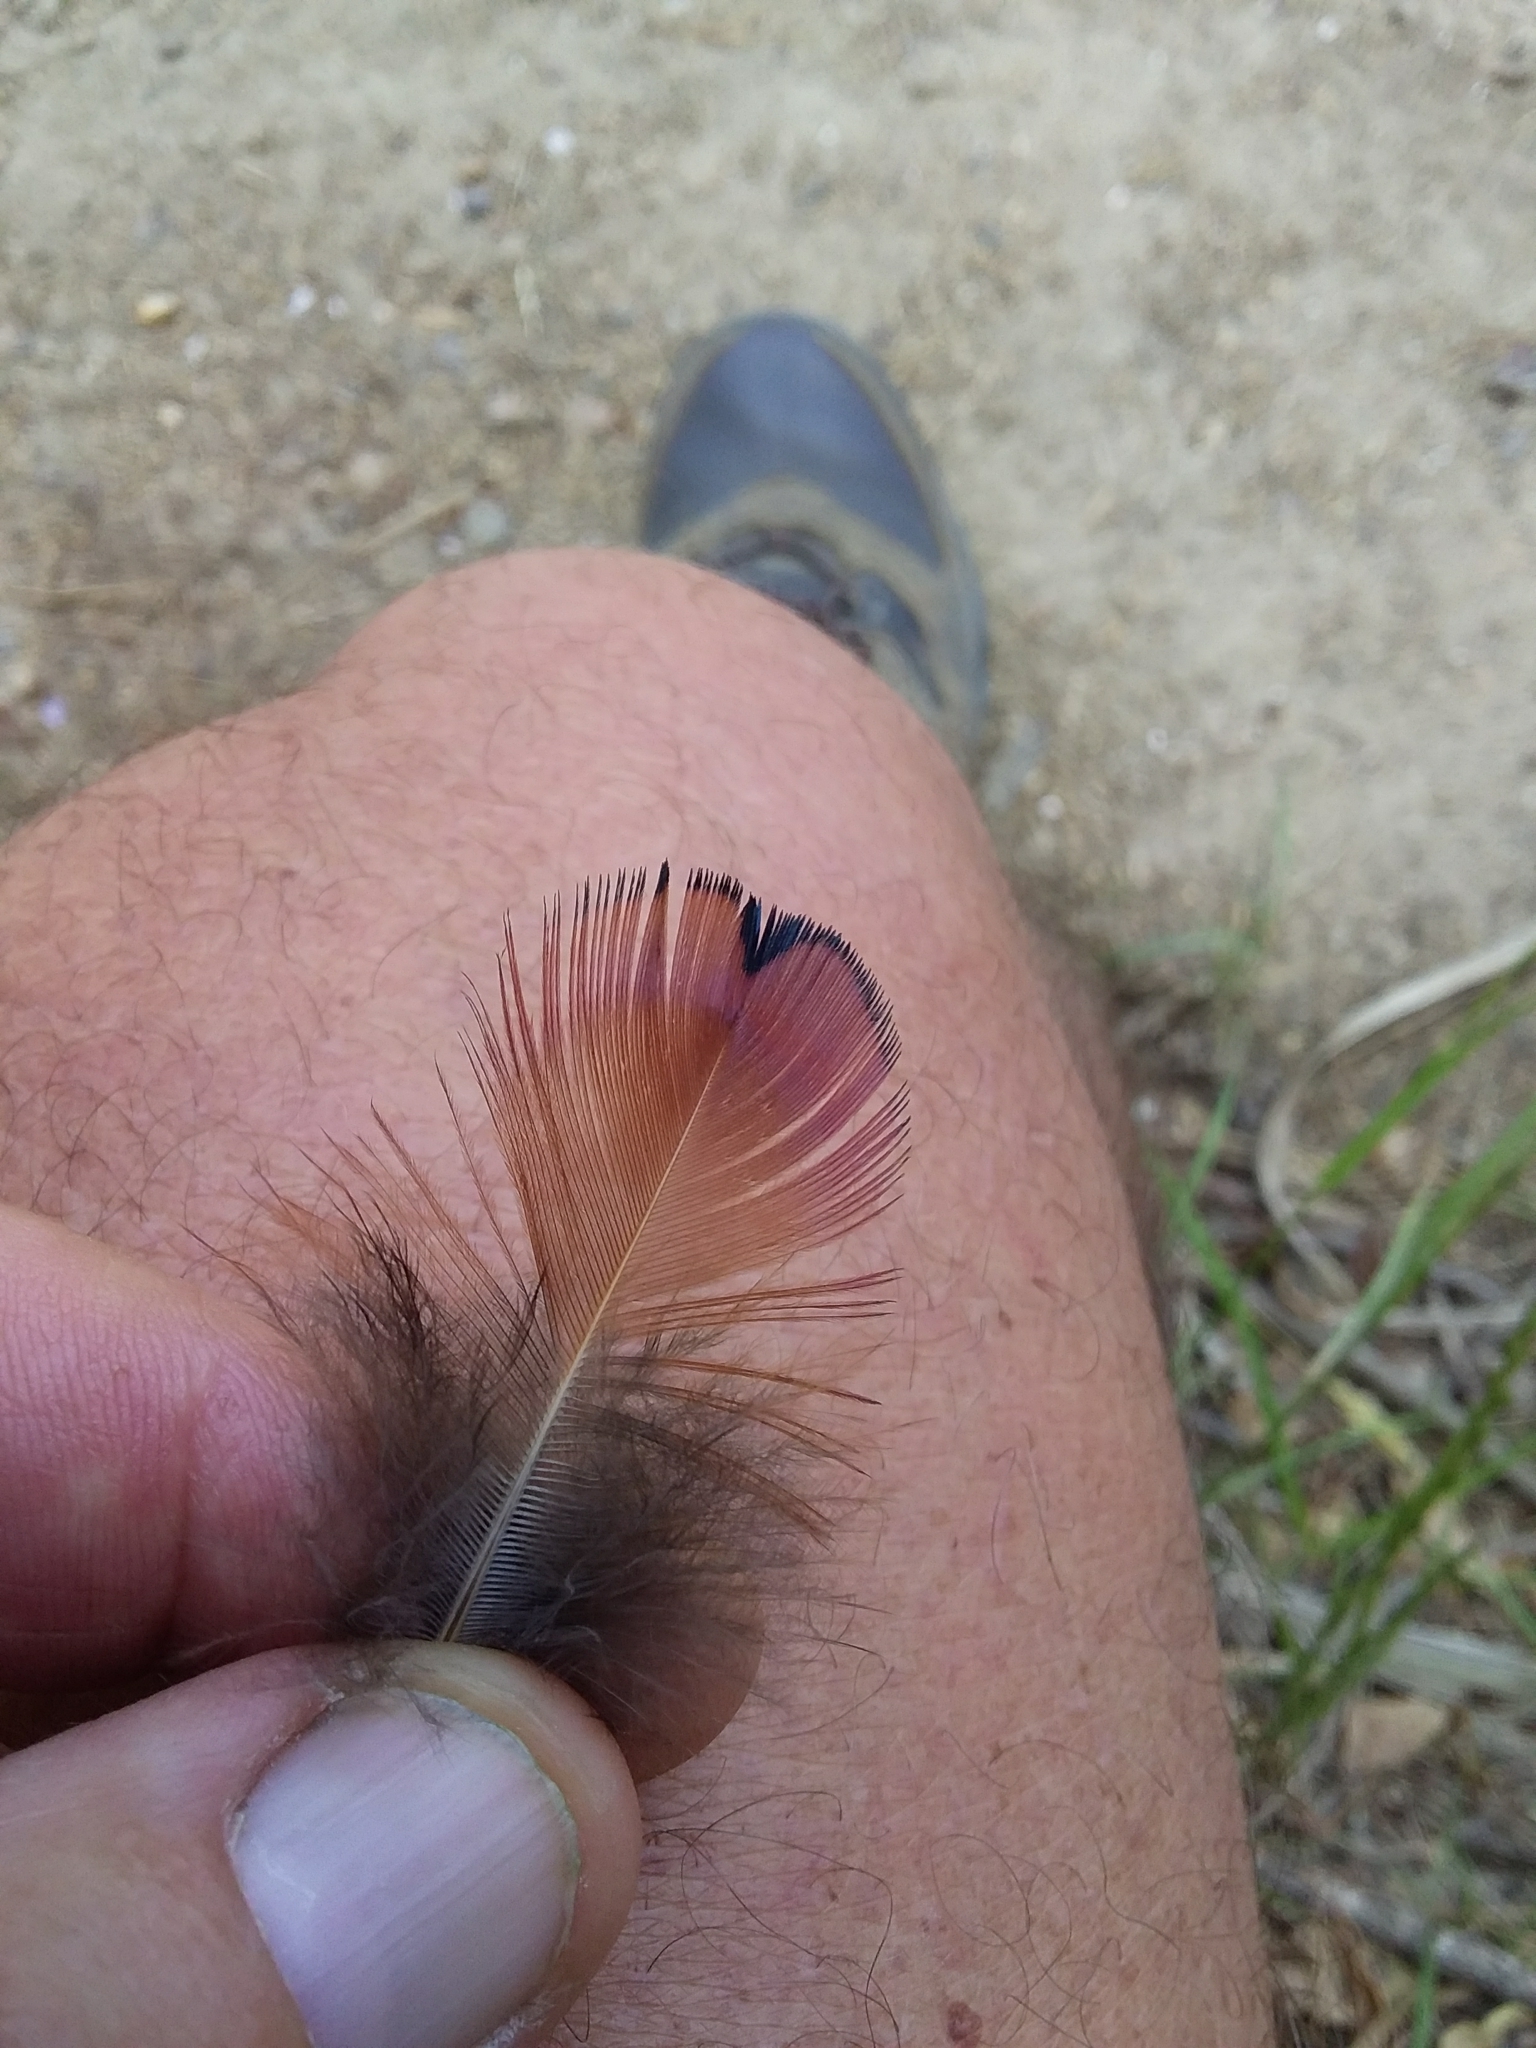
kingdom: Animalia
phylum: Chordata
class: Aves
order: Galliformes
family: Phasianidae
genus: Phasianus
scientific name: Phasianus colchicus
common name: Common pheasant
